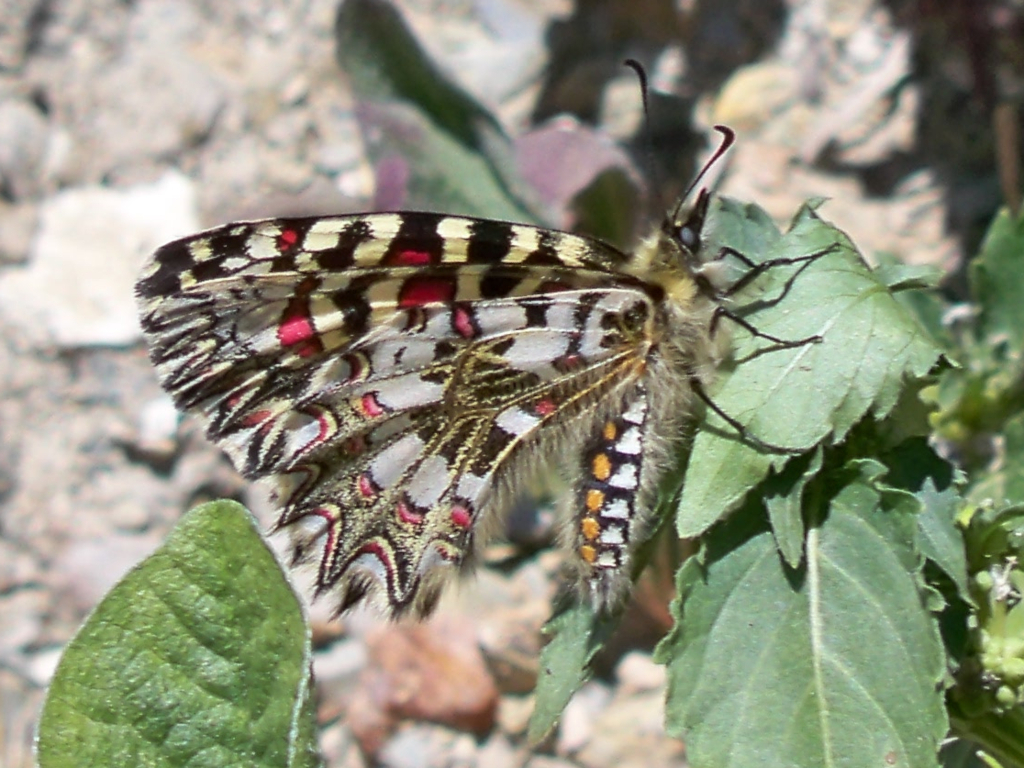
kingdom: Animalia
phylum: Arthropoda
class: Insecta
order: Lepidoptera
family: Papilionidae
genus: Zerynthia
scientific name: Zerynthia rumina
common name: Spanish festoon
